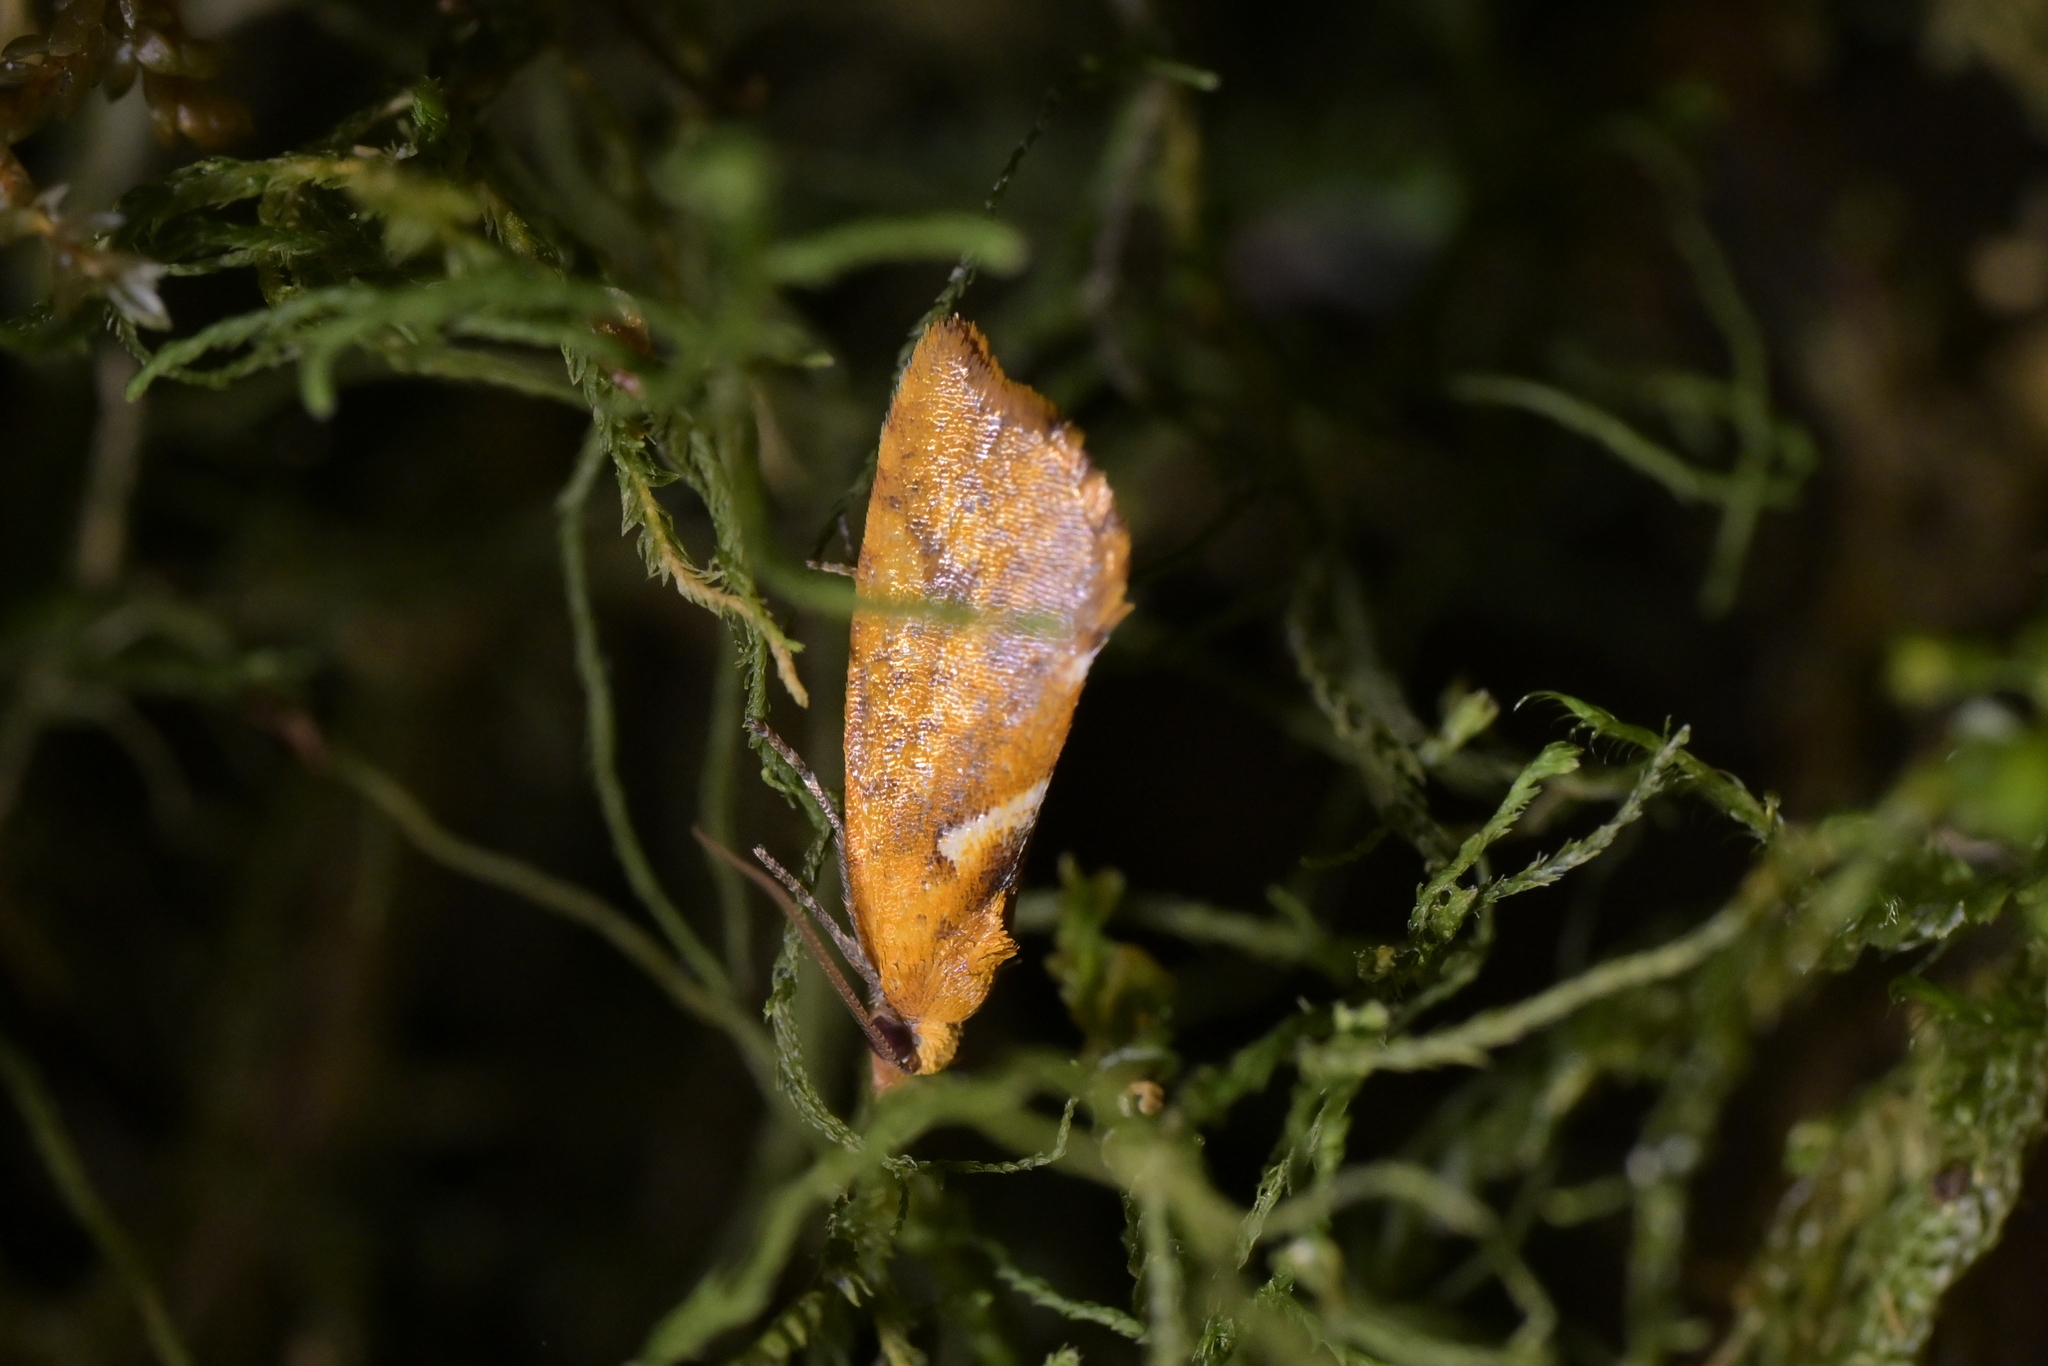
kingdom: Animalia
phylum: Arthropoda
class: Insecta
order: Lepidoptera
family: Tortricidae
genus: Pyrgotis
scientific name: Pyrgotis pyramidias
